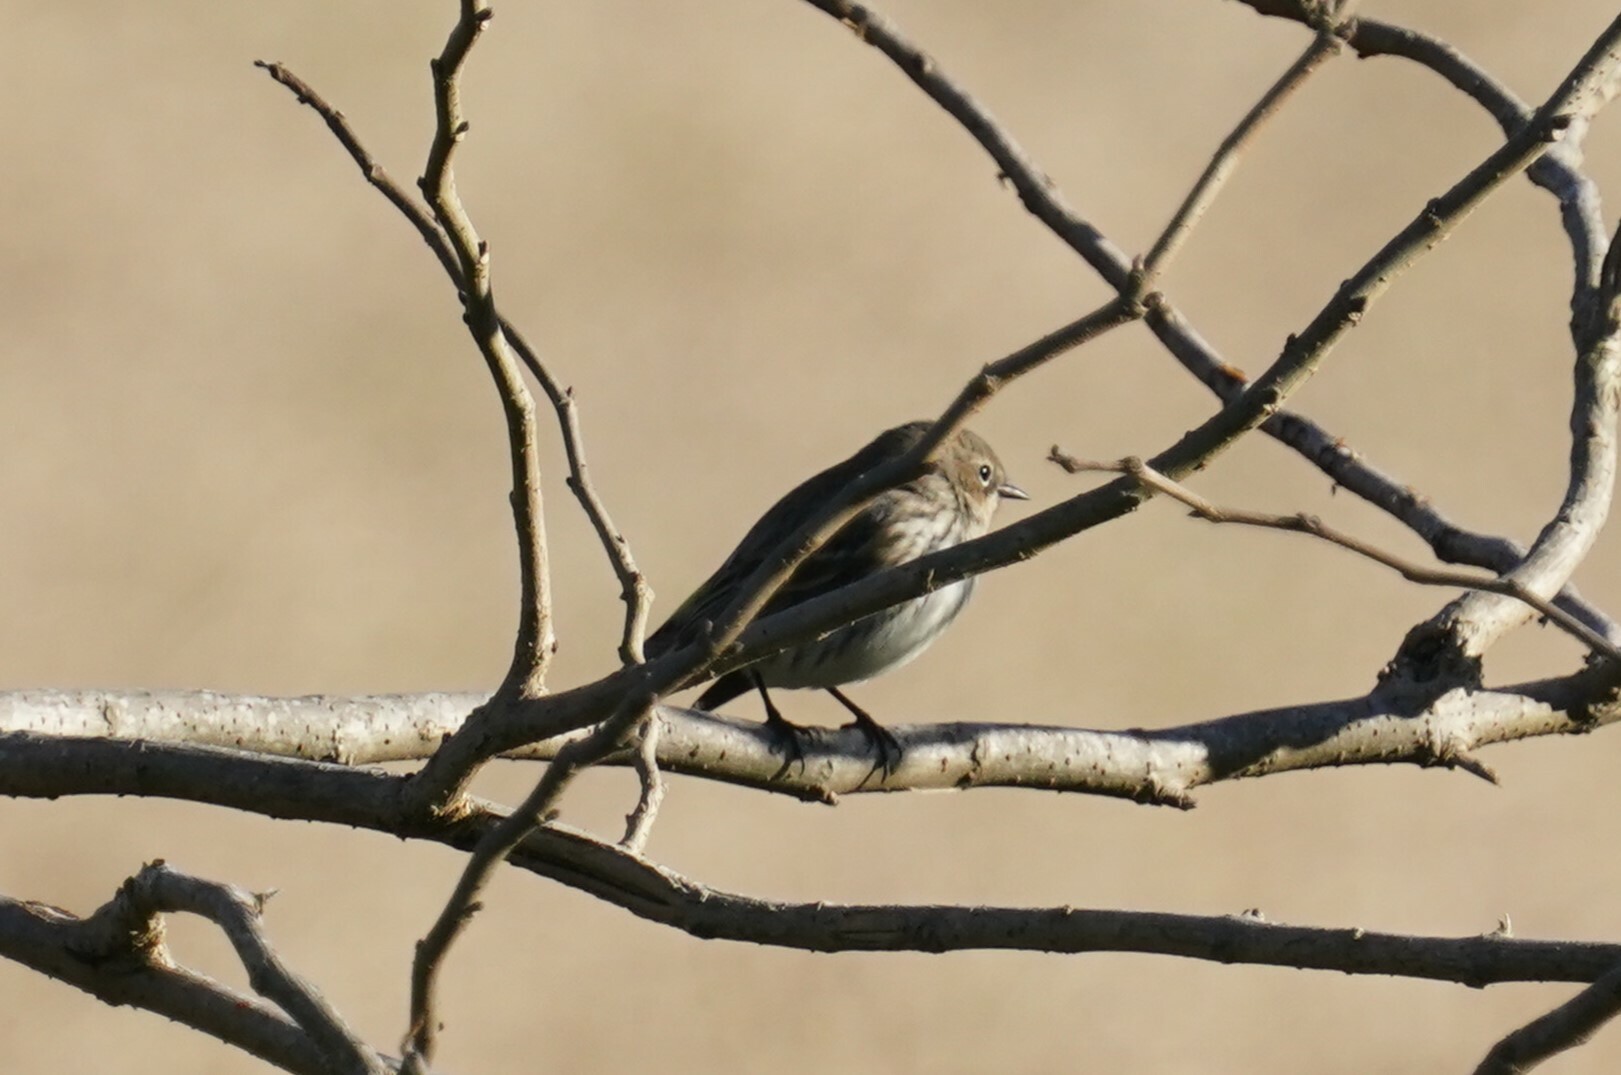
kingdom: Animalia
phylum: Chordata
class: Aves
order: Passeriformes
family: Parulidae
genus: Setophaga
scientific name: Setophaga coronata
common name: Myrtle warbler
